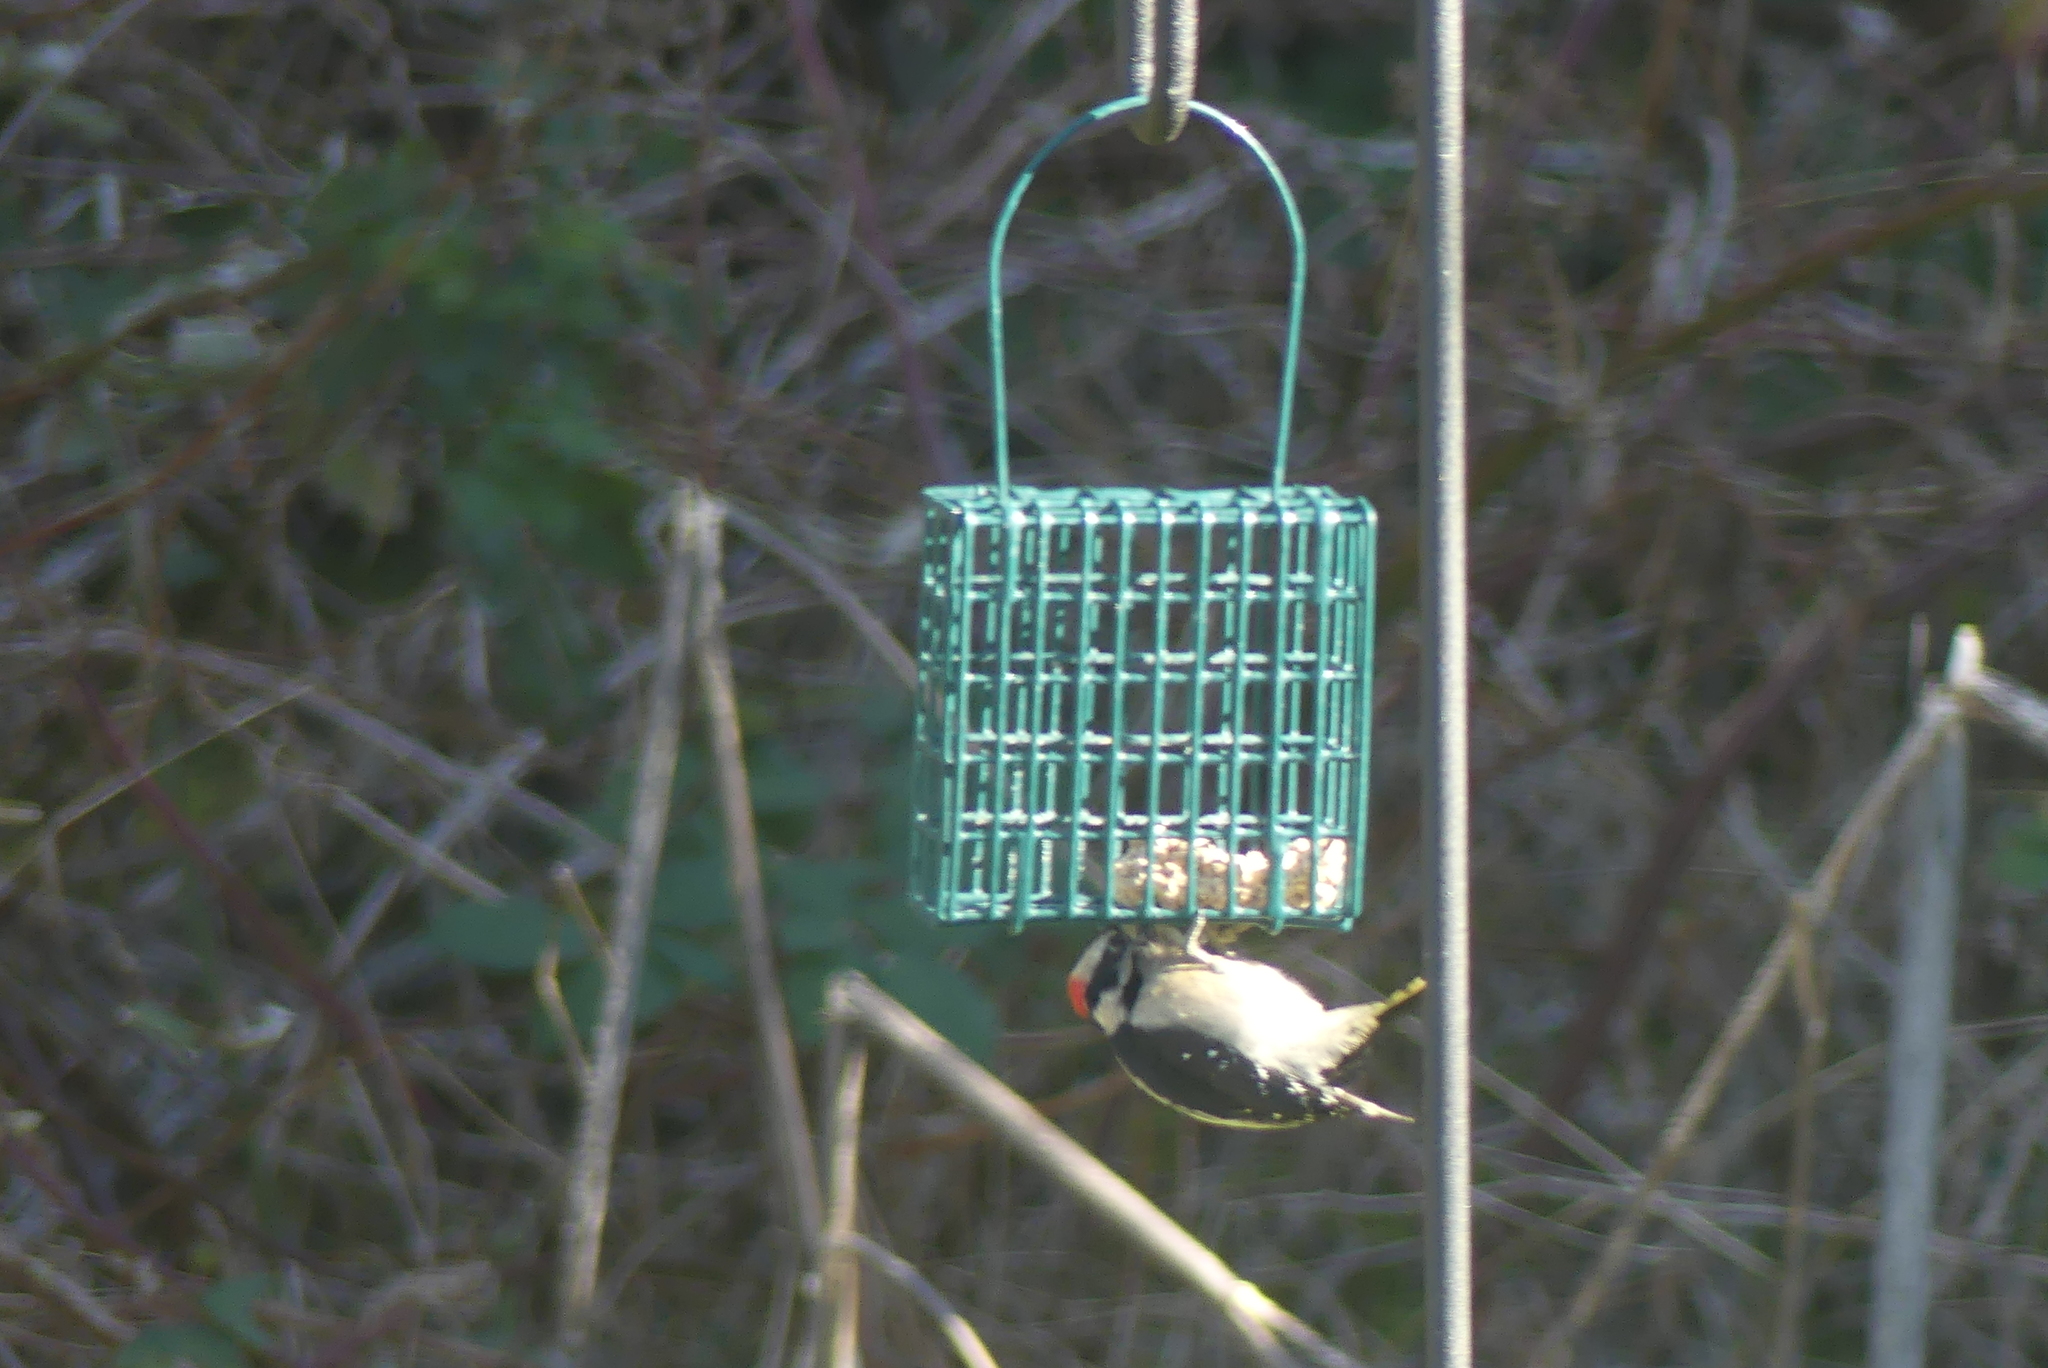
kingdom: Animalia
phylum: Chordata
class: Aves
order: Piciformes
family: Picidae
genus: Dryobates
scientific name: Dryobates pubescens
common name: Downy woodpecker
